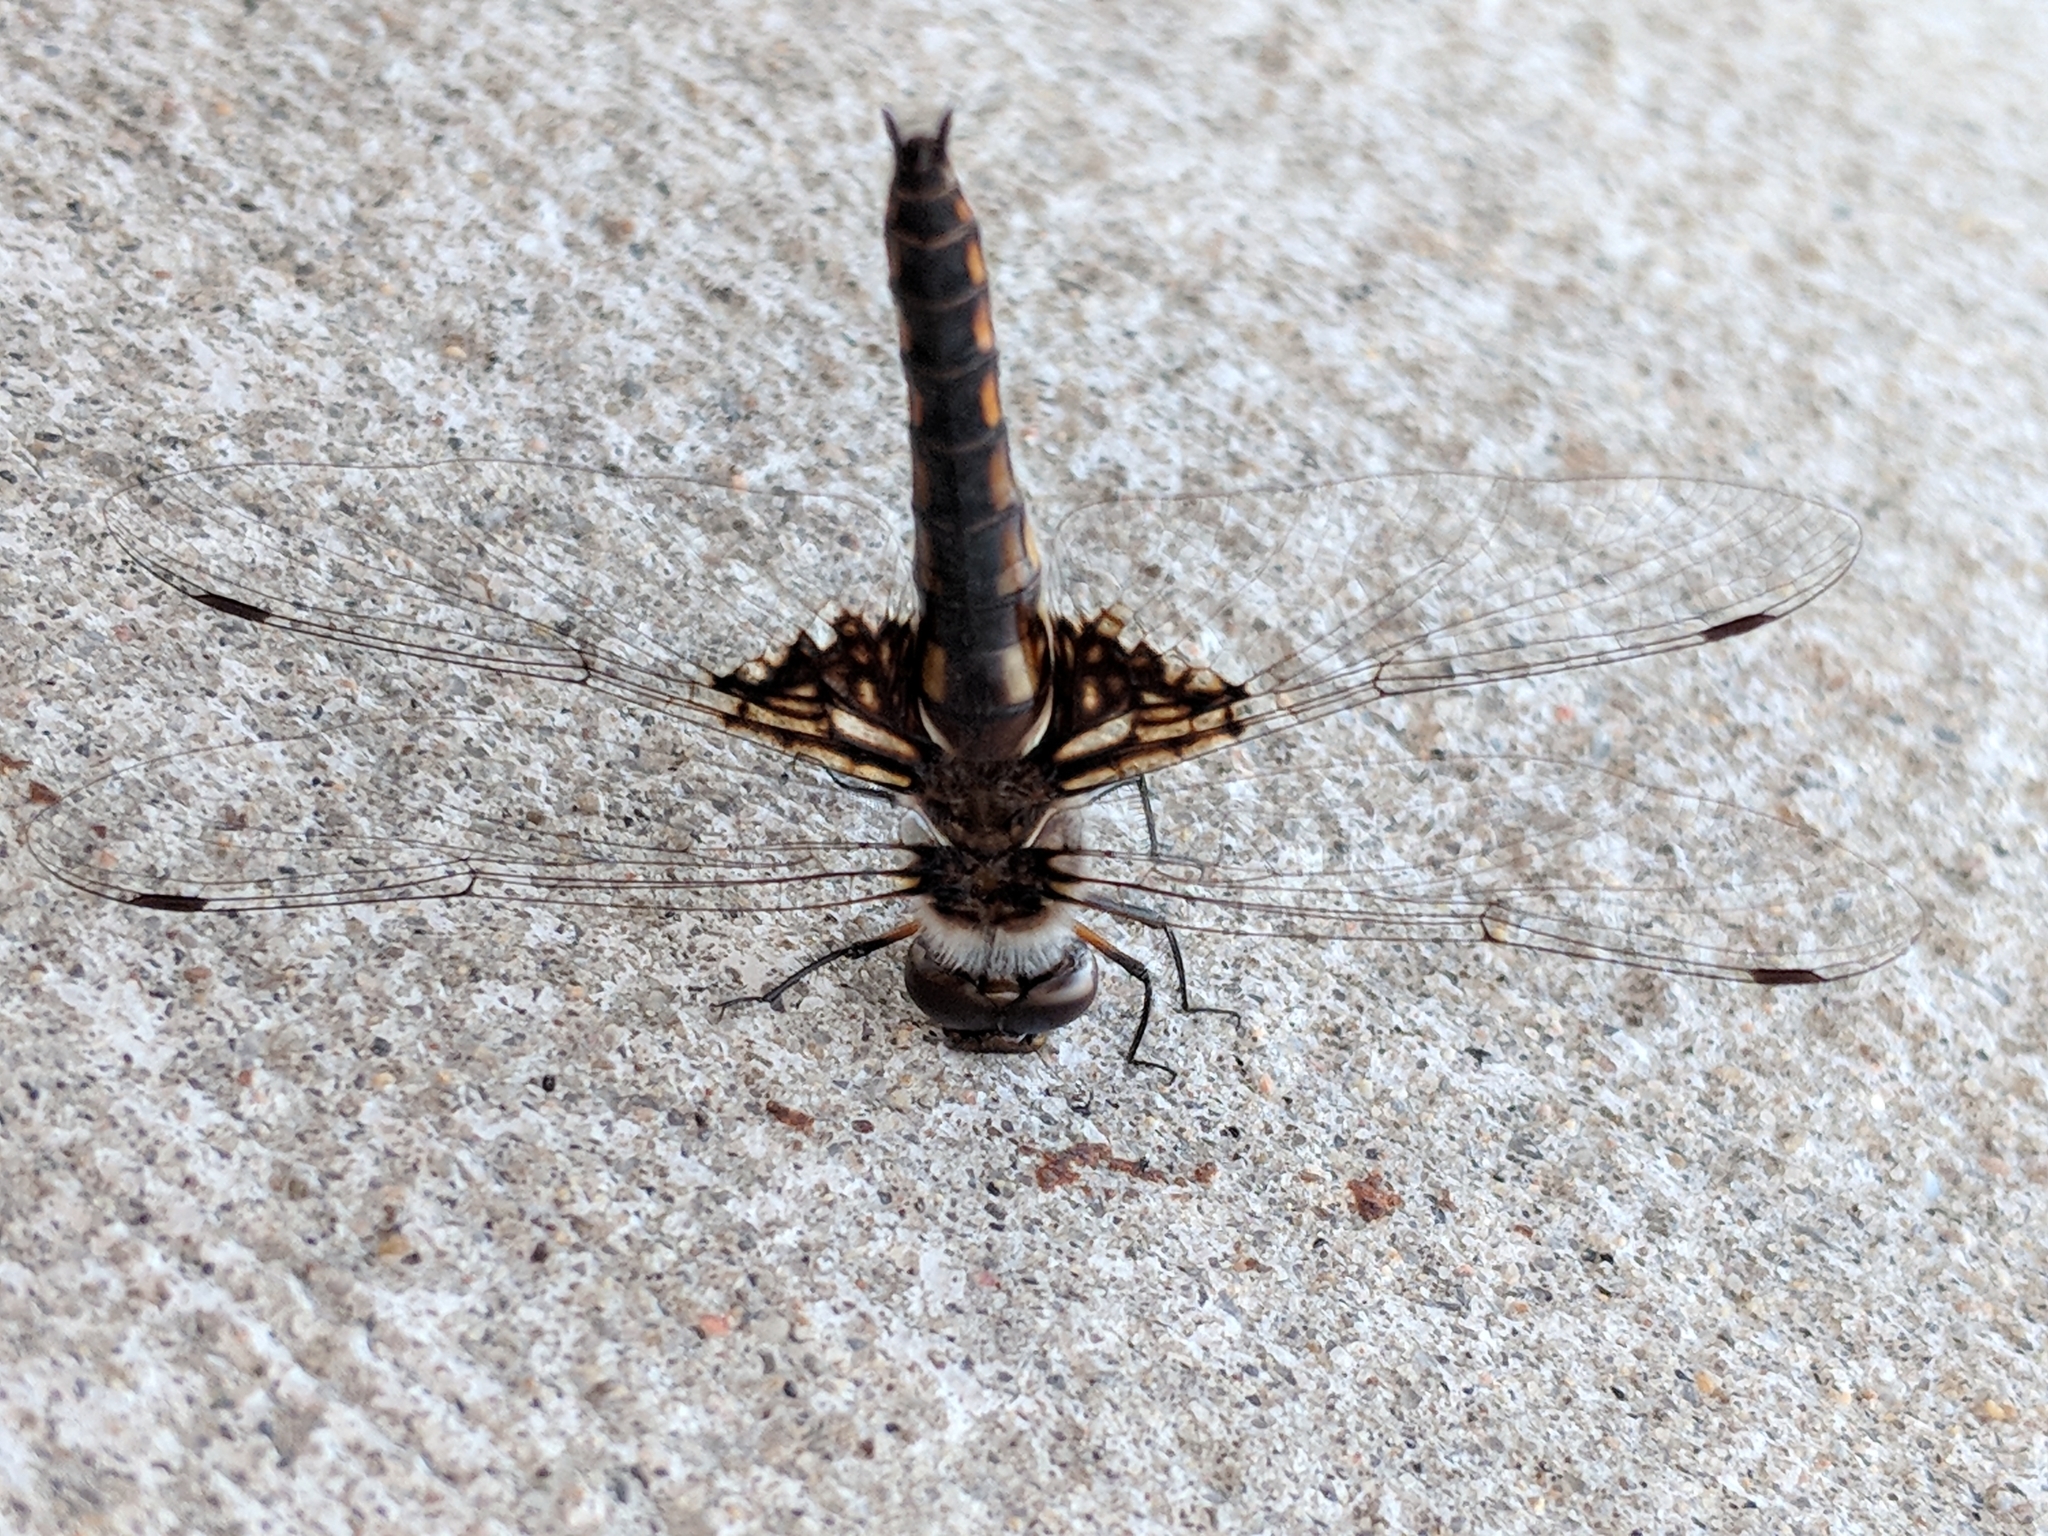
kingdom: Animalia
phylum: Arthropoda
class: Insecta
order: Odonata
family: Corduliidae
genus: Epitheca
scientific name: Epitheca cynosura
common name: Common baskettail
